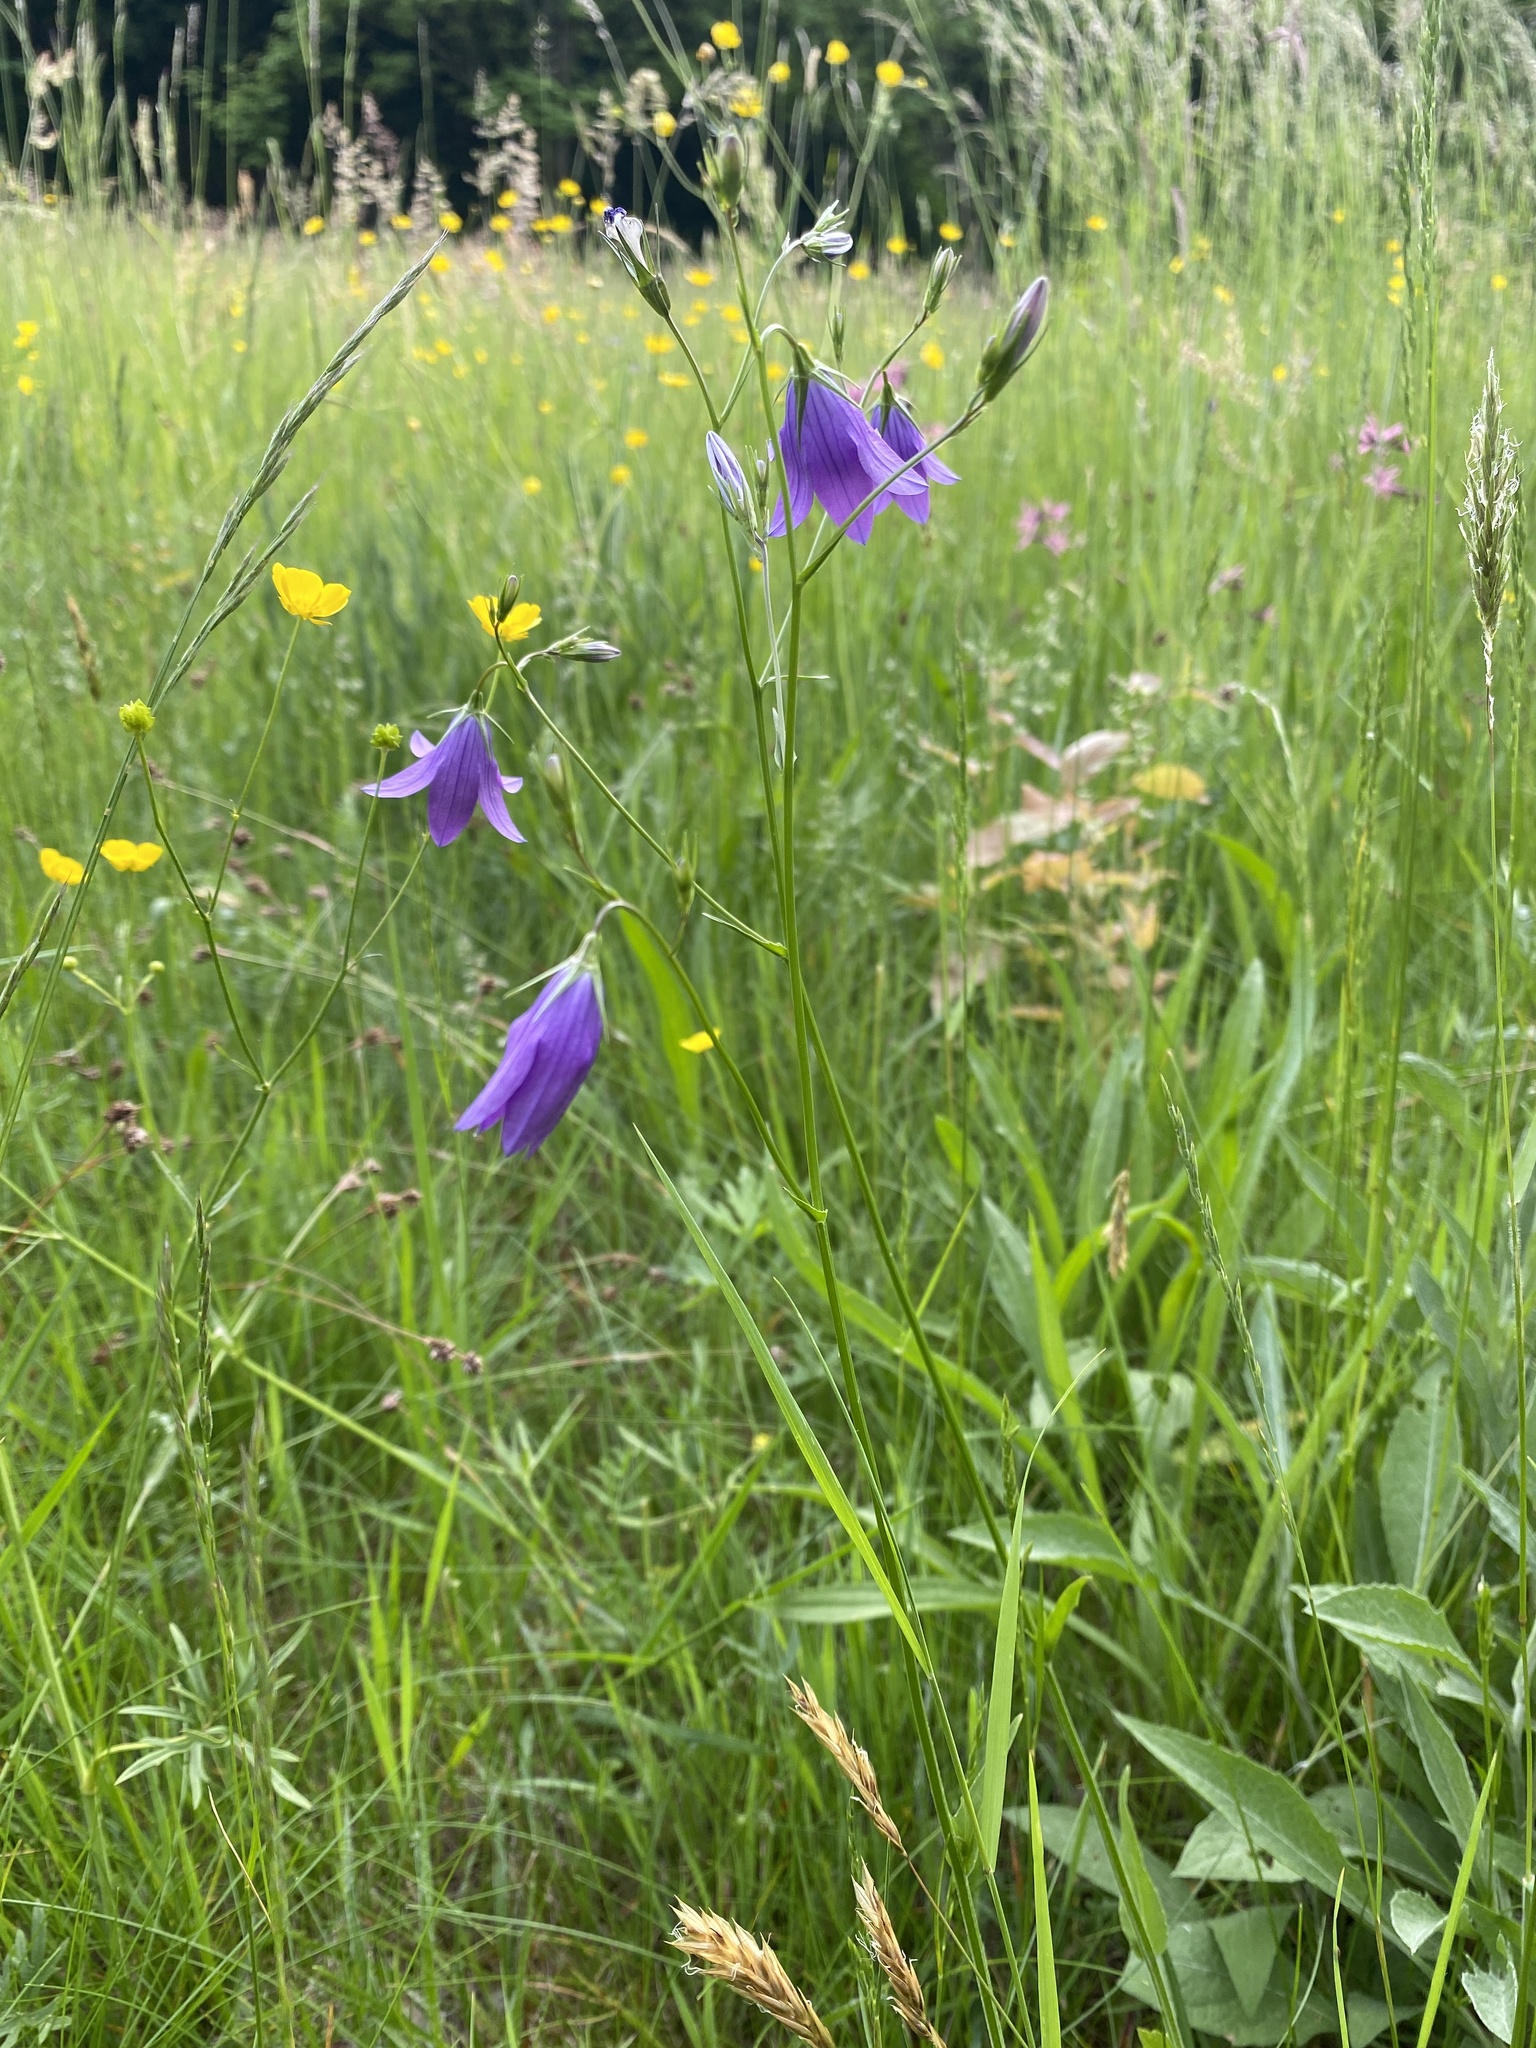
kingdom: Plantae
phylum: Tracheophyta
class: Magnoliopsida
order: Asterales
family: Campanulaceae
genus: Campanula
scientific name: Campanula patula
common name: Spreading bellflower
